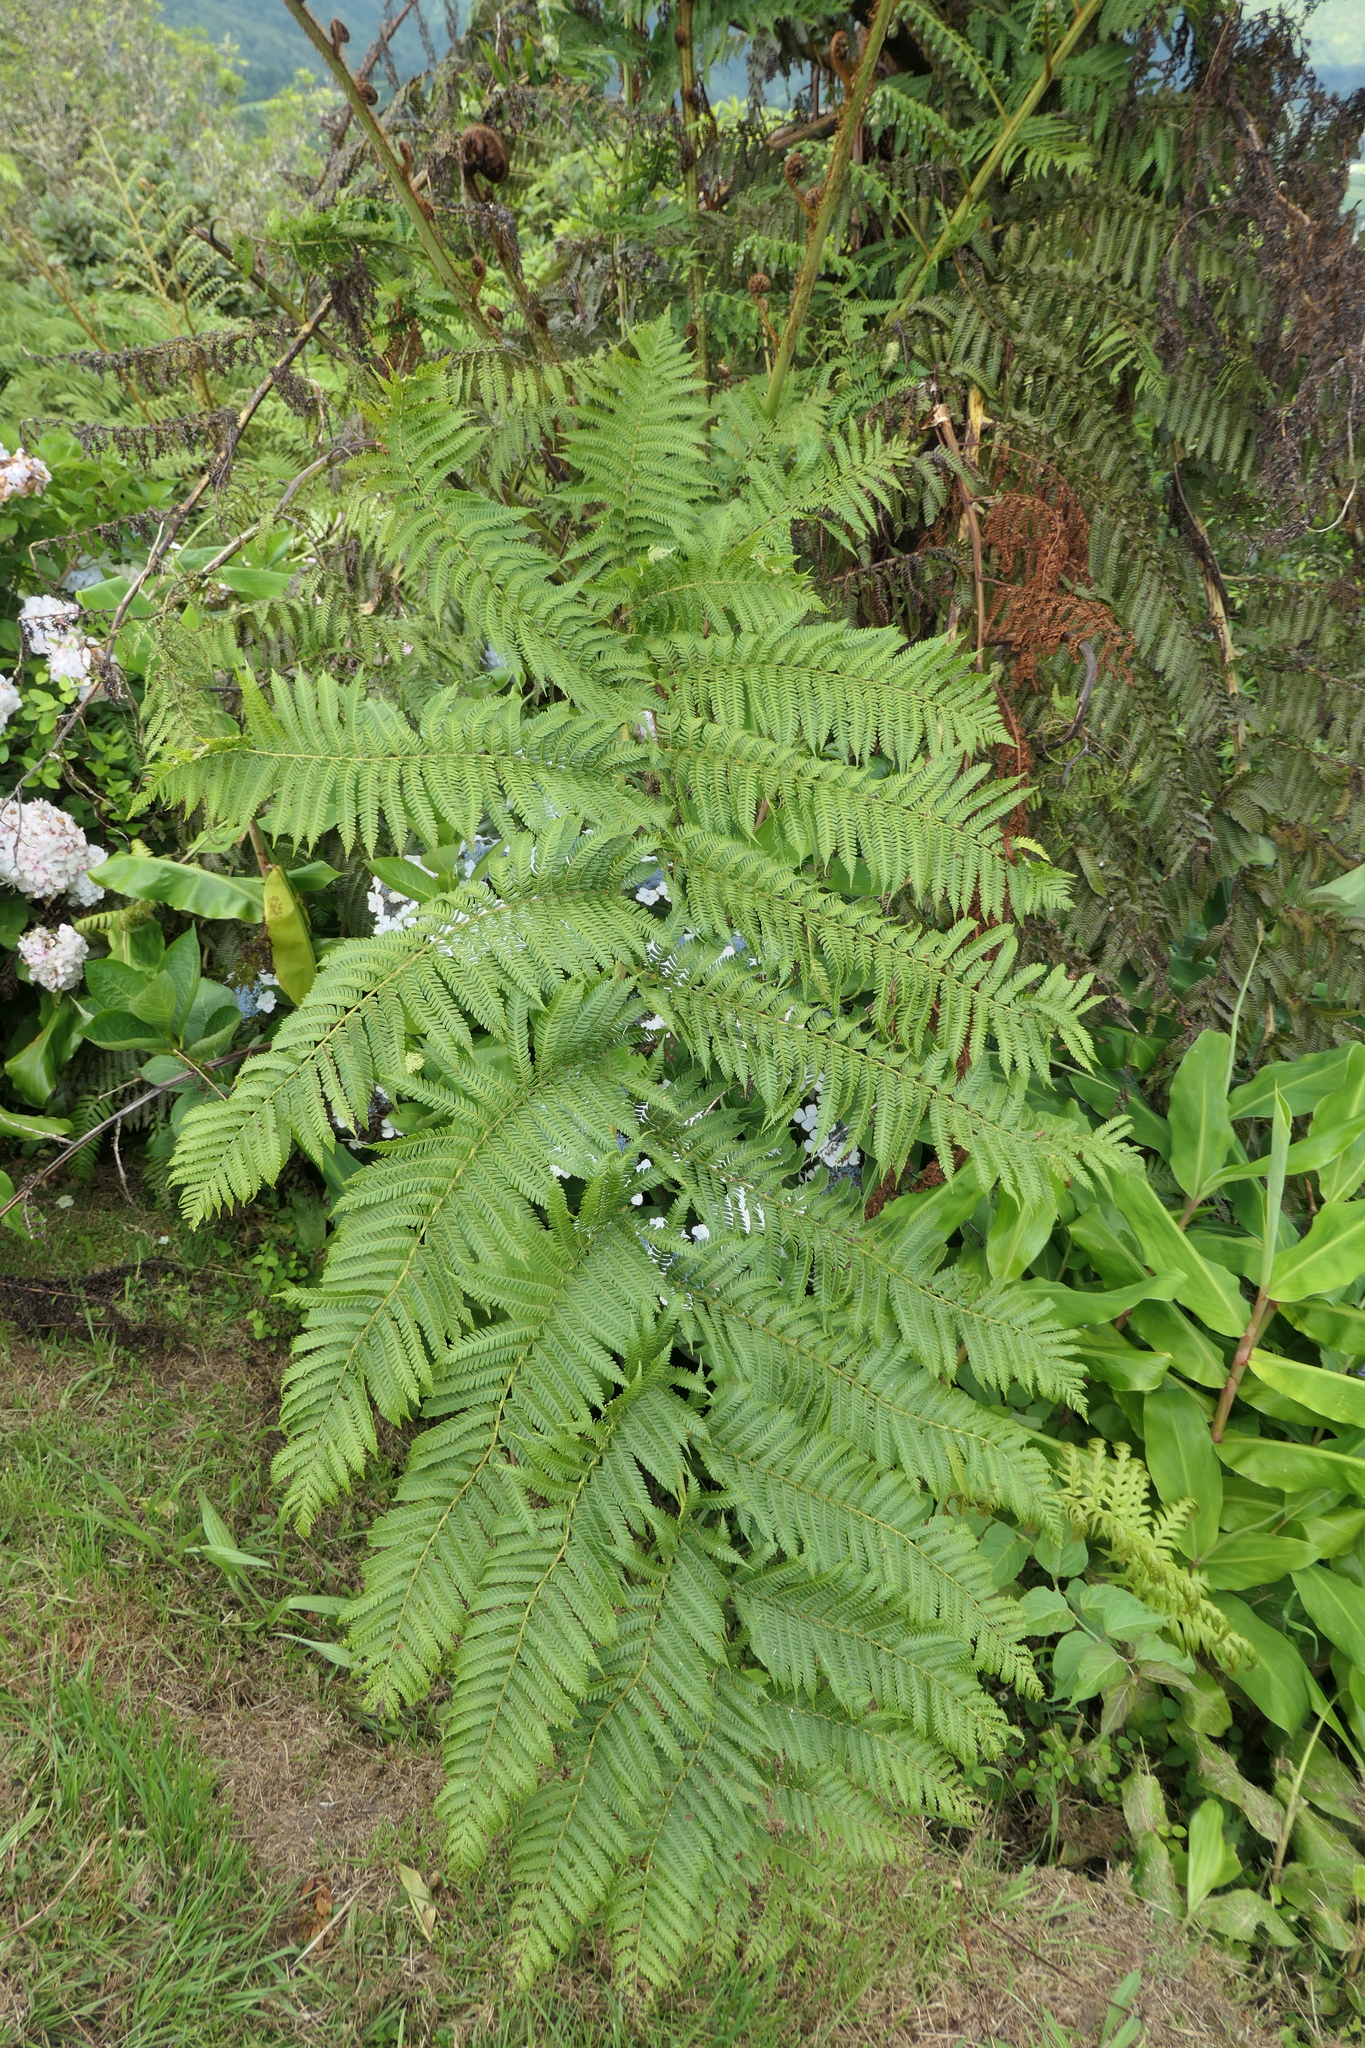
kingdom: Plantae
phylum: Tracheophyta
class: Polypodiopsida
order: Cyatheales
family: Cyatheaceae
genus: Sphaeropteris
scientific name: Sphaeropteris cooperi
